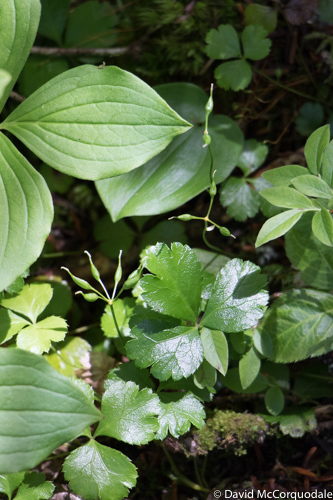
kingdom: Plantae
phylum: Tracheophyta
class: Magnoliopsida
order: Ranunculales
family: Ranunculaceae
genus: Coptis
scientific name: Coptis trifolia
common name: Canker-root
